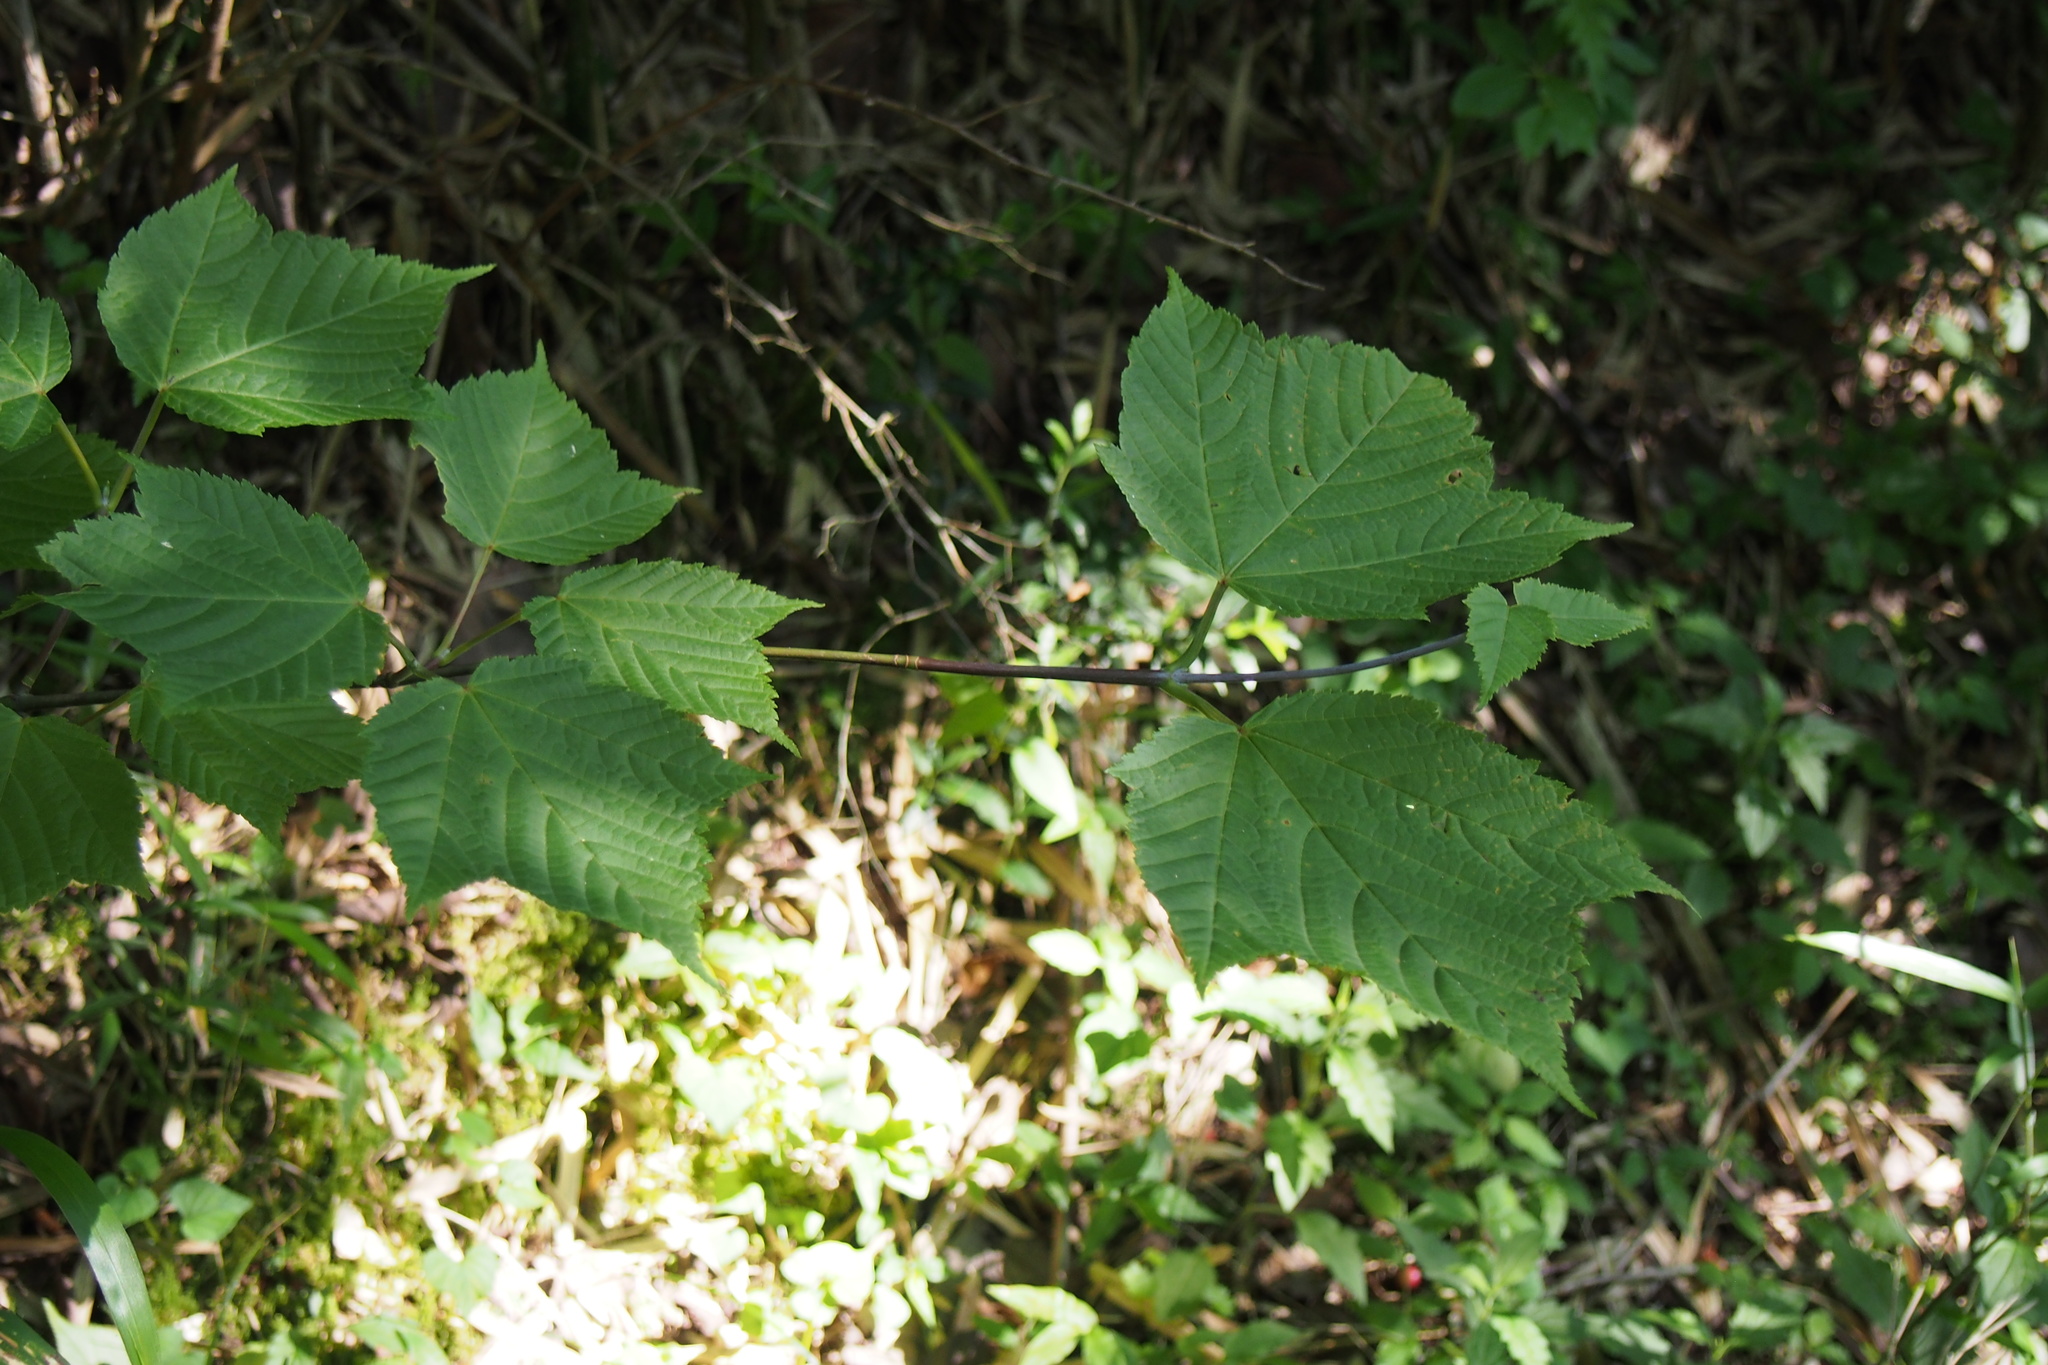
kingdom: Plantae
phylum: Tracheophyta
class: Magnoliopsida
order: Sapindales
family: Sapindaceae
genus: Acer
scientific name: Acer rufinerve
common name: Red veined maple
